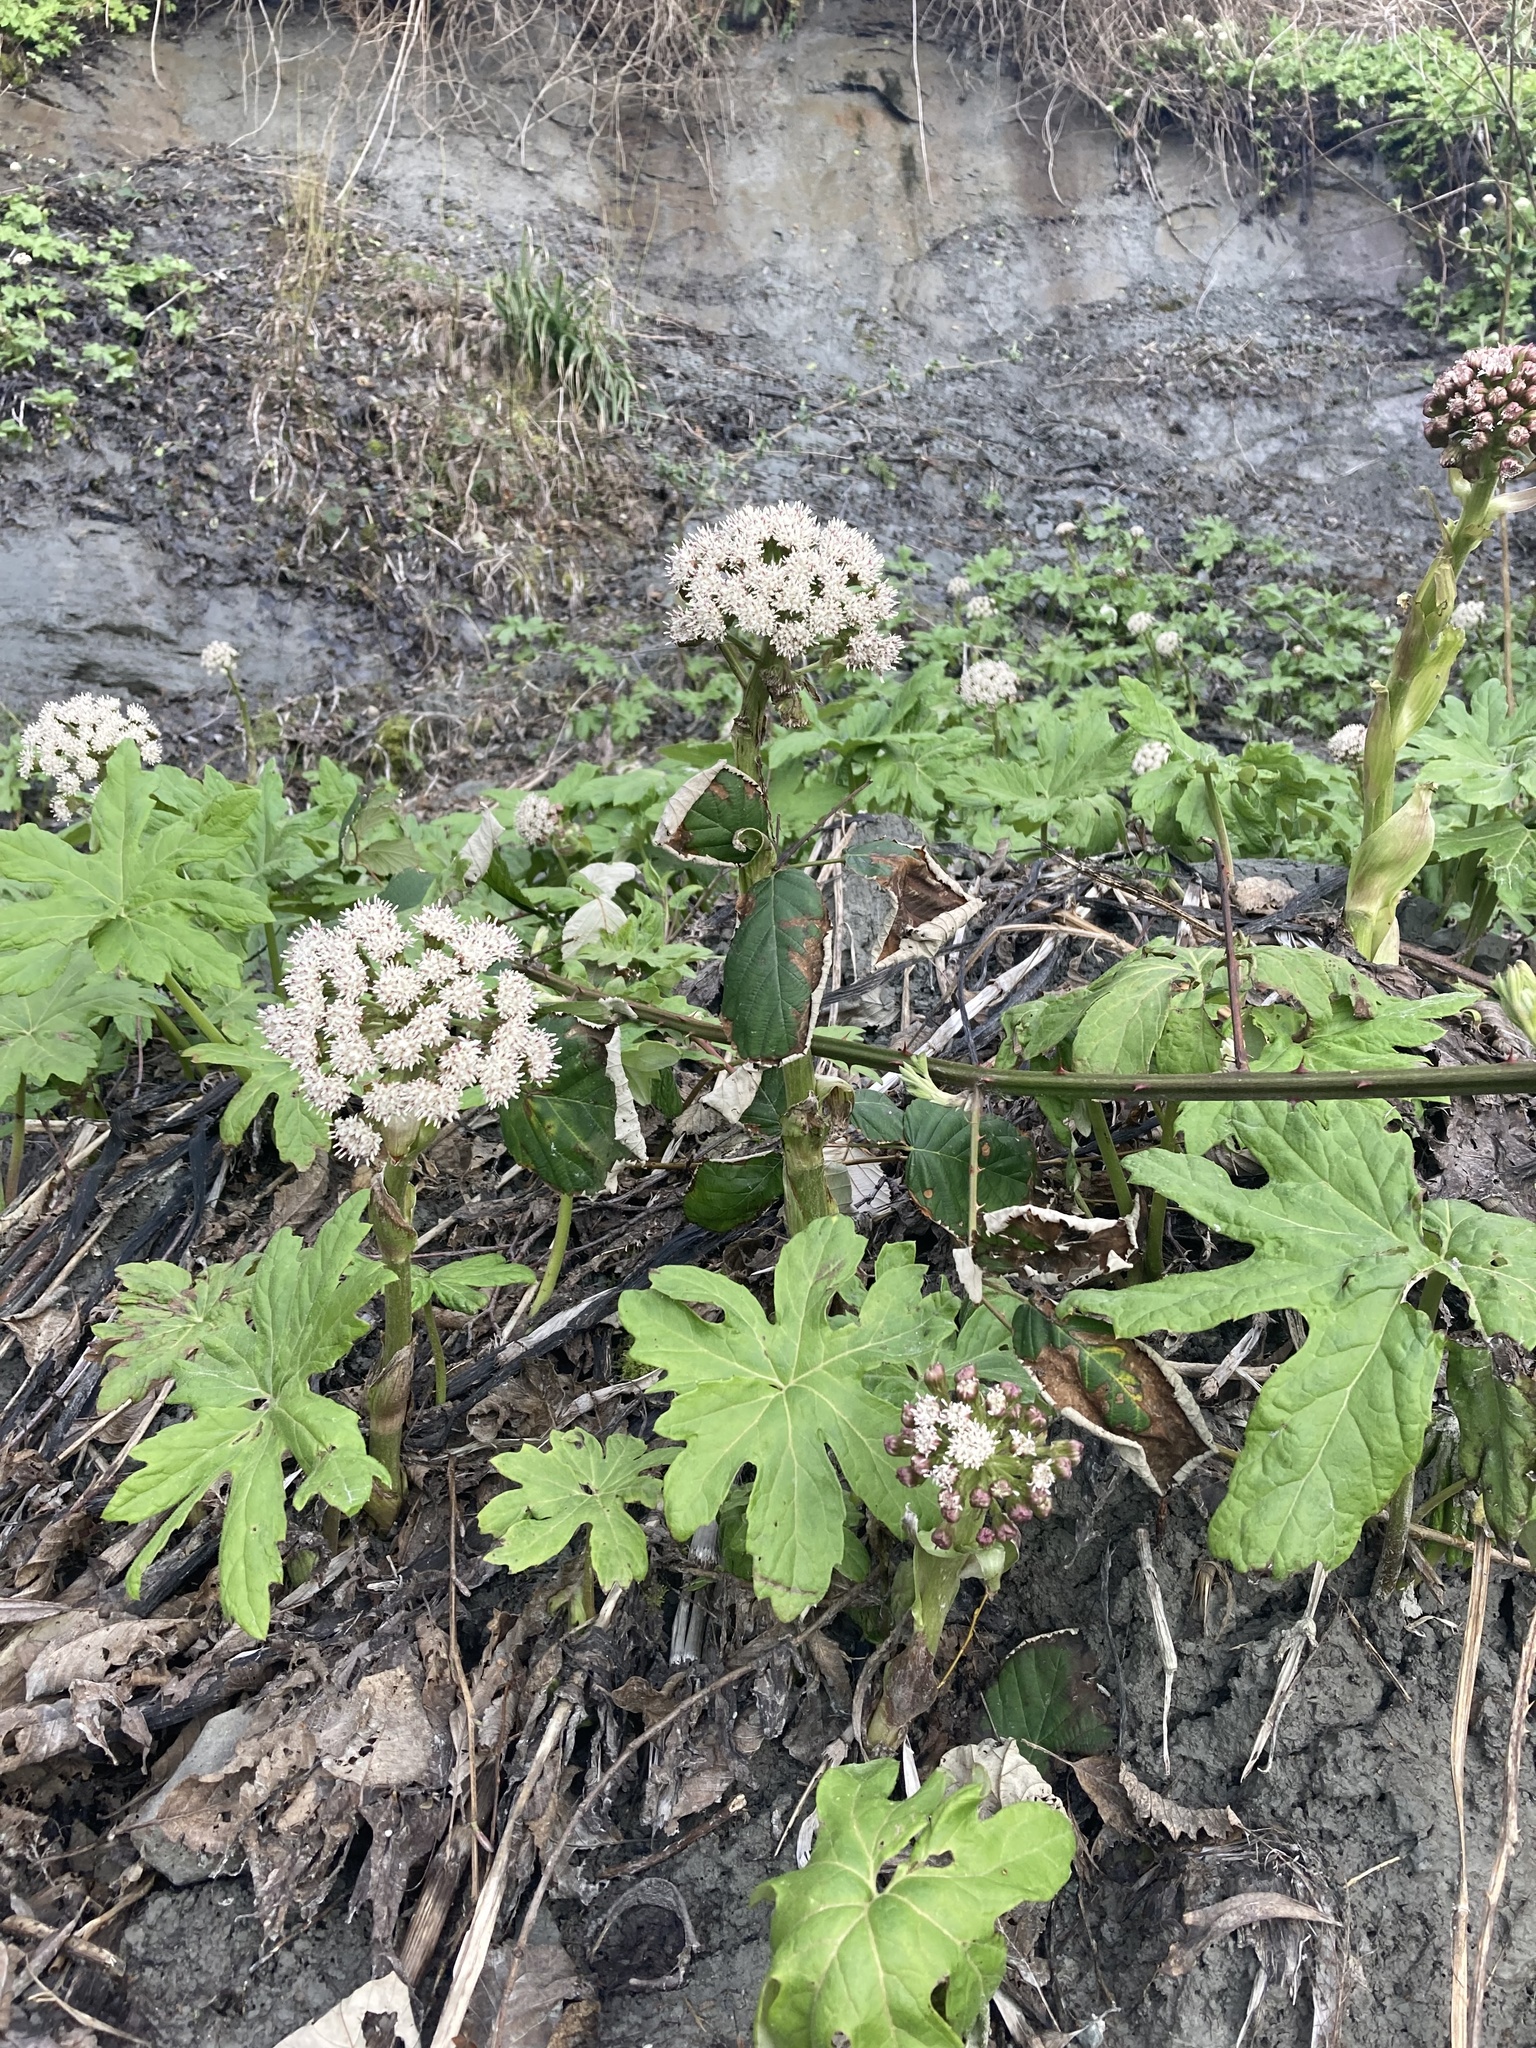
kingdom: Plantae
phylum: Tracheophyta
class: Magnoliopsida
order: Asterales
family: Asteraceae
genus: Petasites
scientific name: Petasites frigidus
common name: Arctic butterbur
